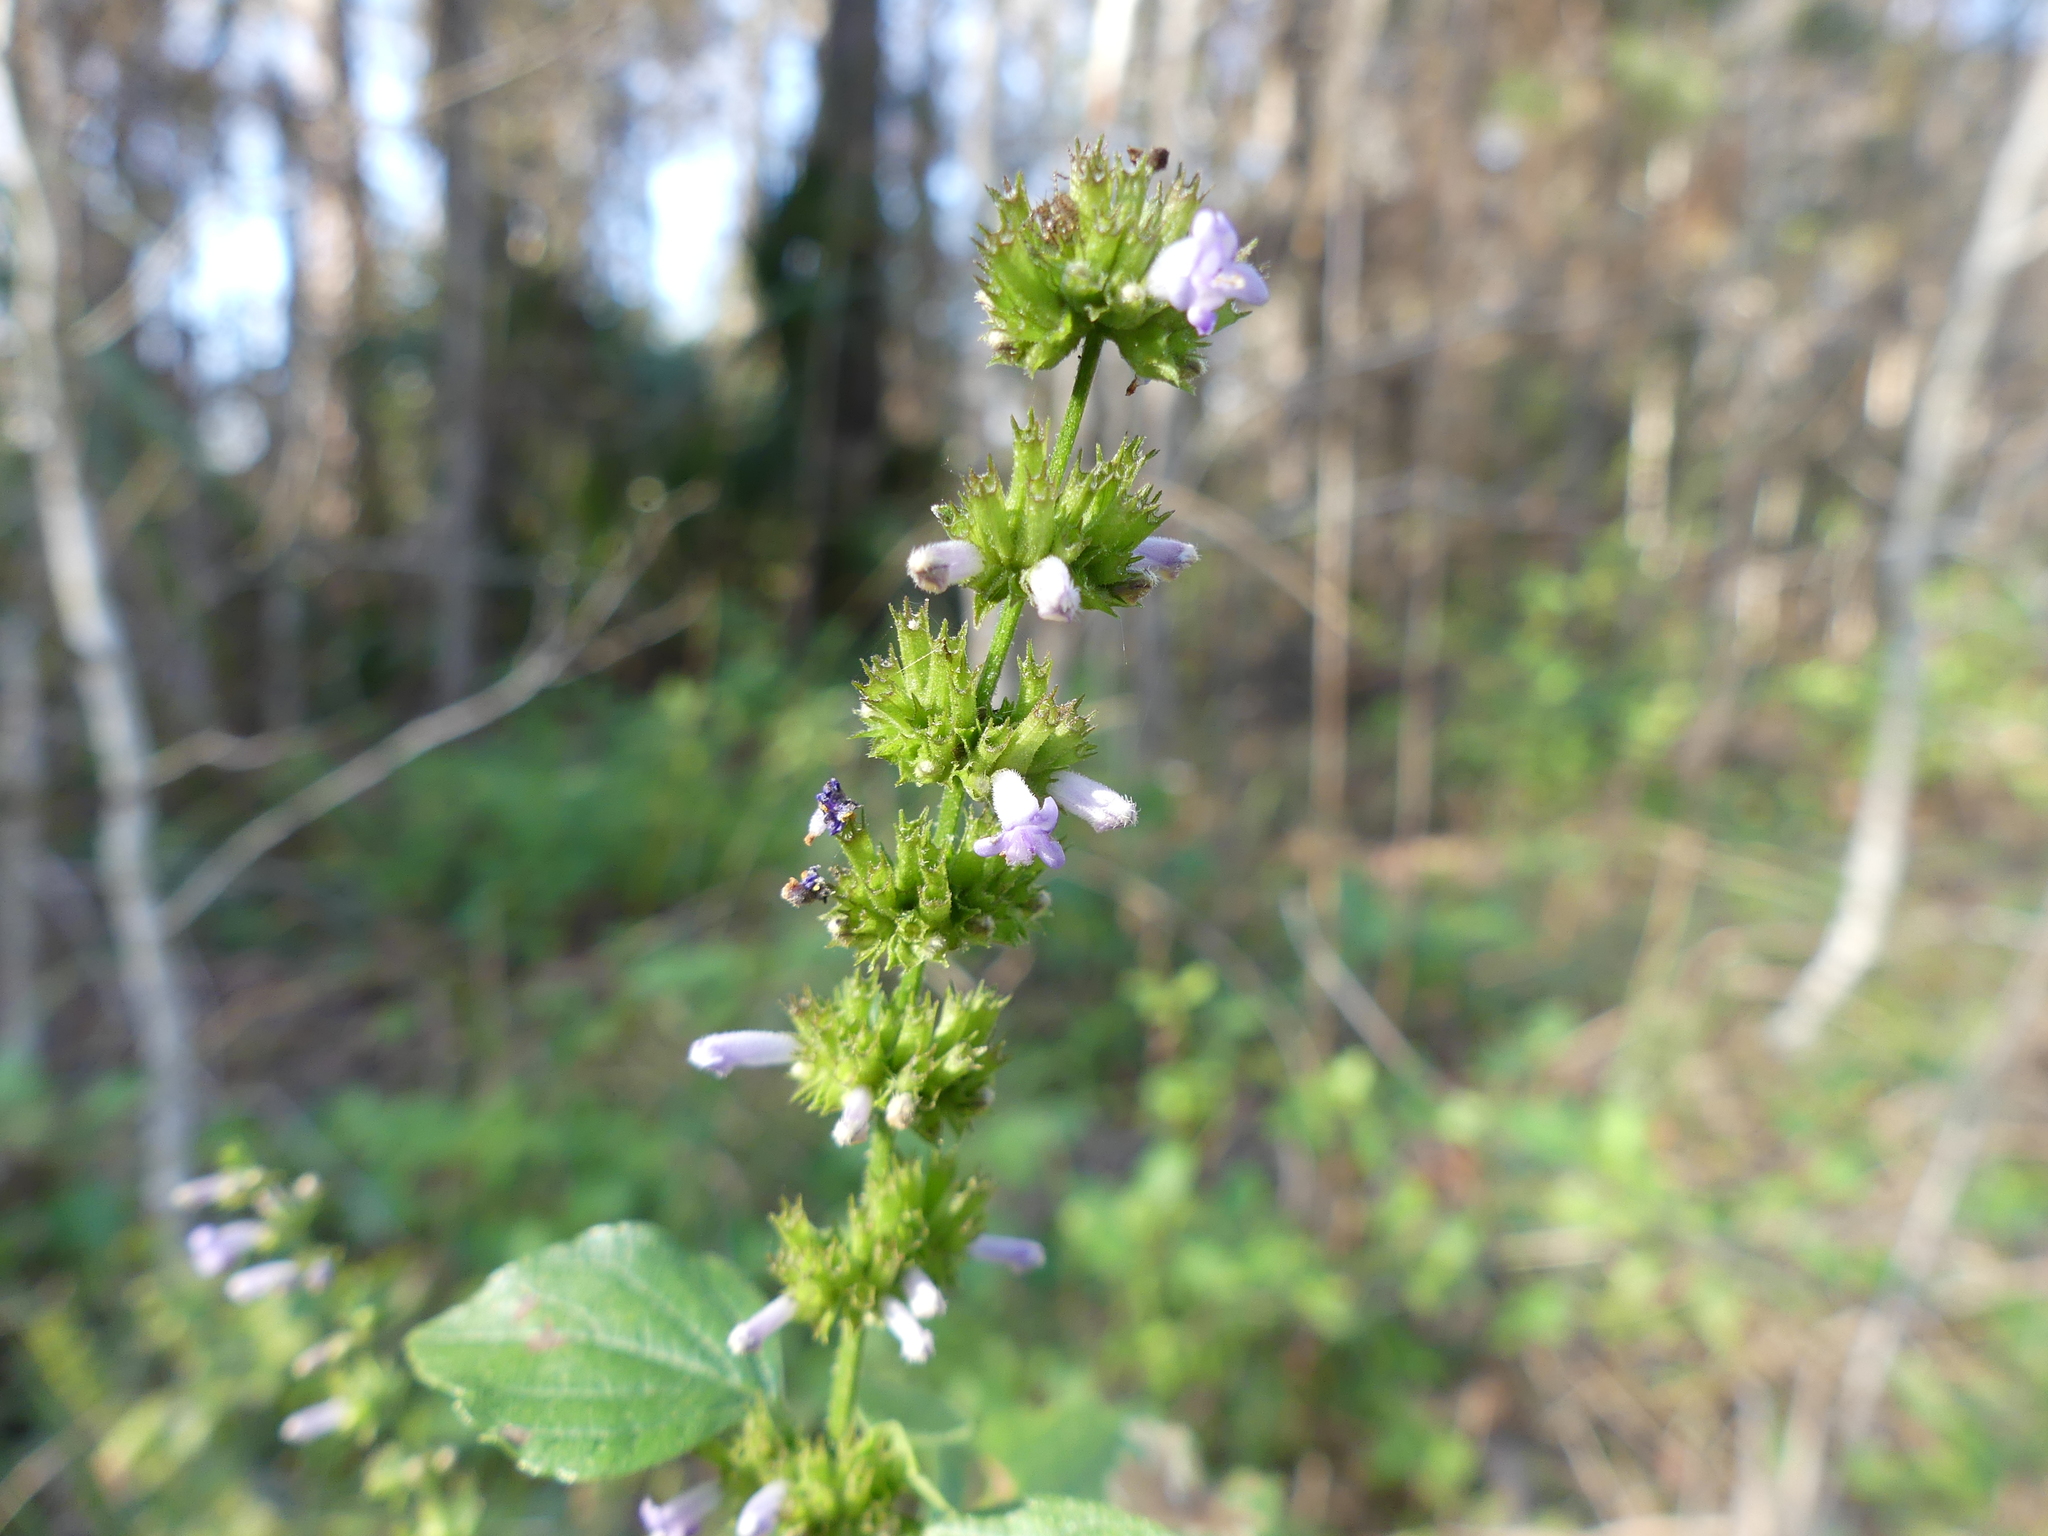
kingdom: Plantae
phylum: Tracheophyta
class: Magnoliopsida
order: Lamiales
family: Lamiaceae
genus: Cantinoa
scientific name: Cantinoa mutabilis
